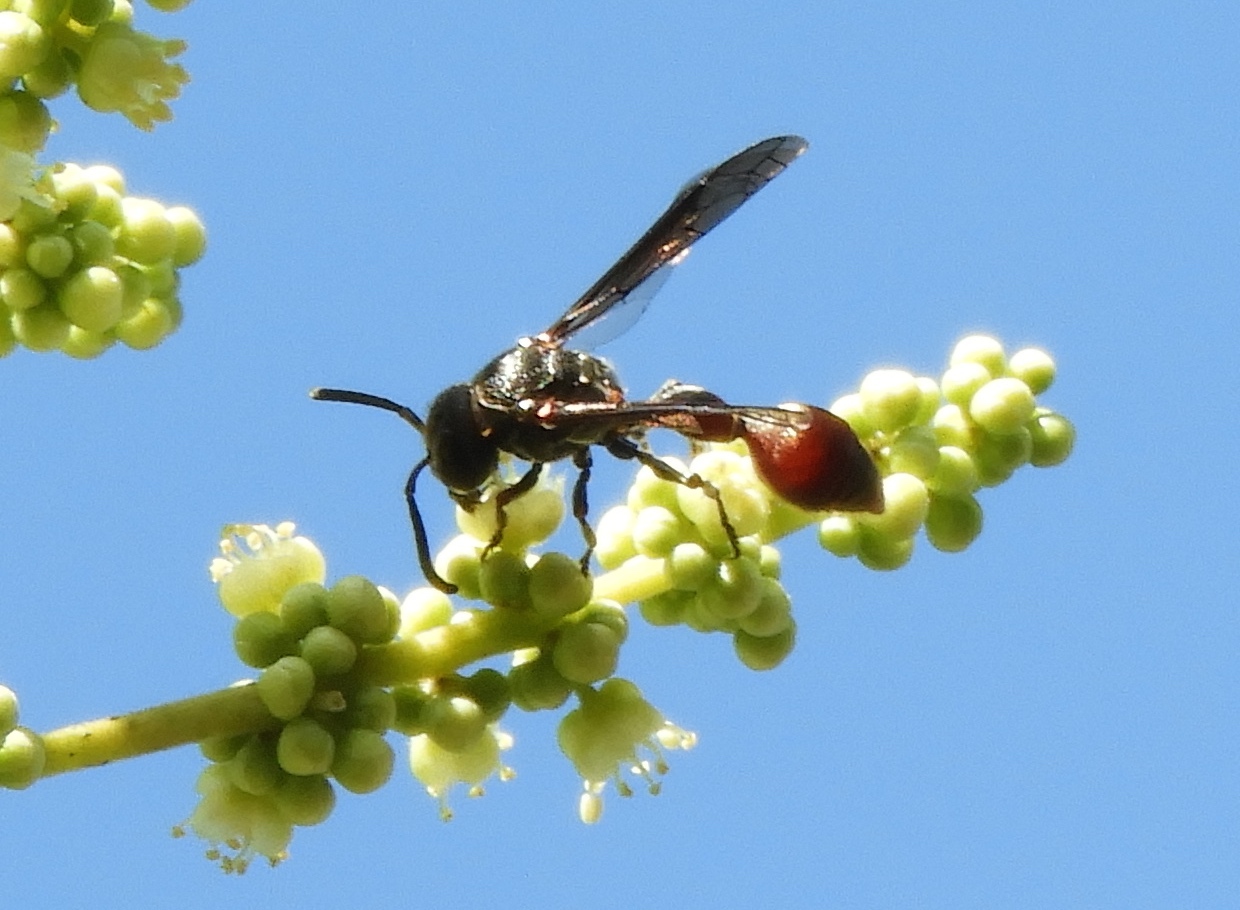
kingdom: Animalia
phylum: Arthropoda
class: Insecta
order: Hymenoptera
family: Eumenidae
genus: Zethus
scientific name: Zethus analis
